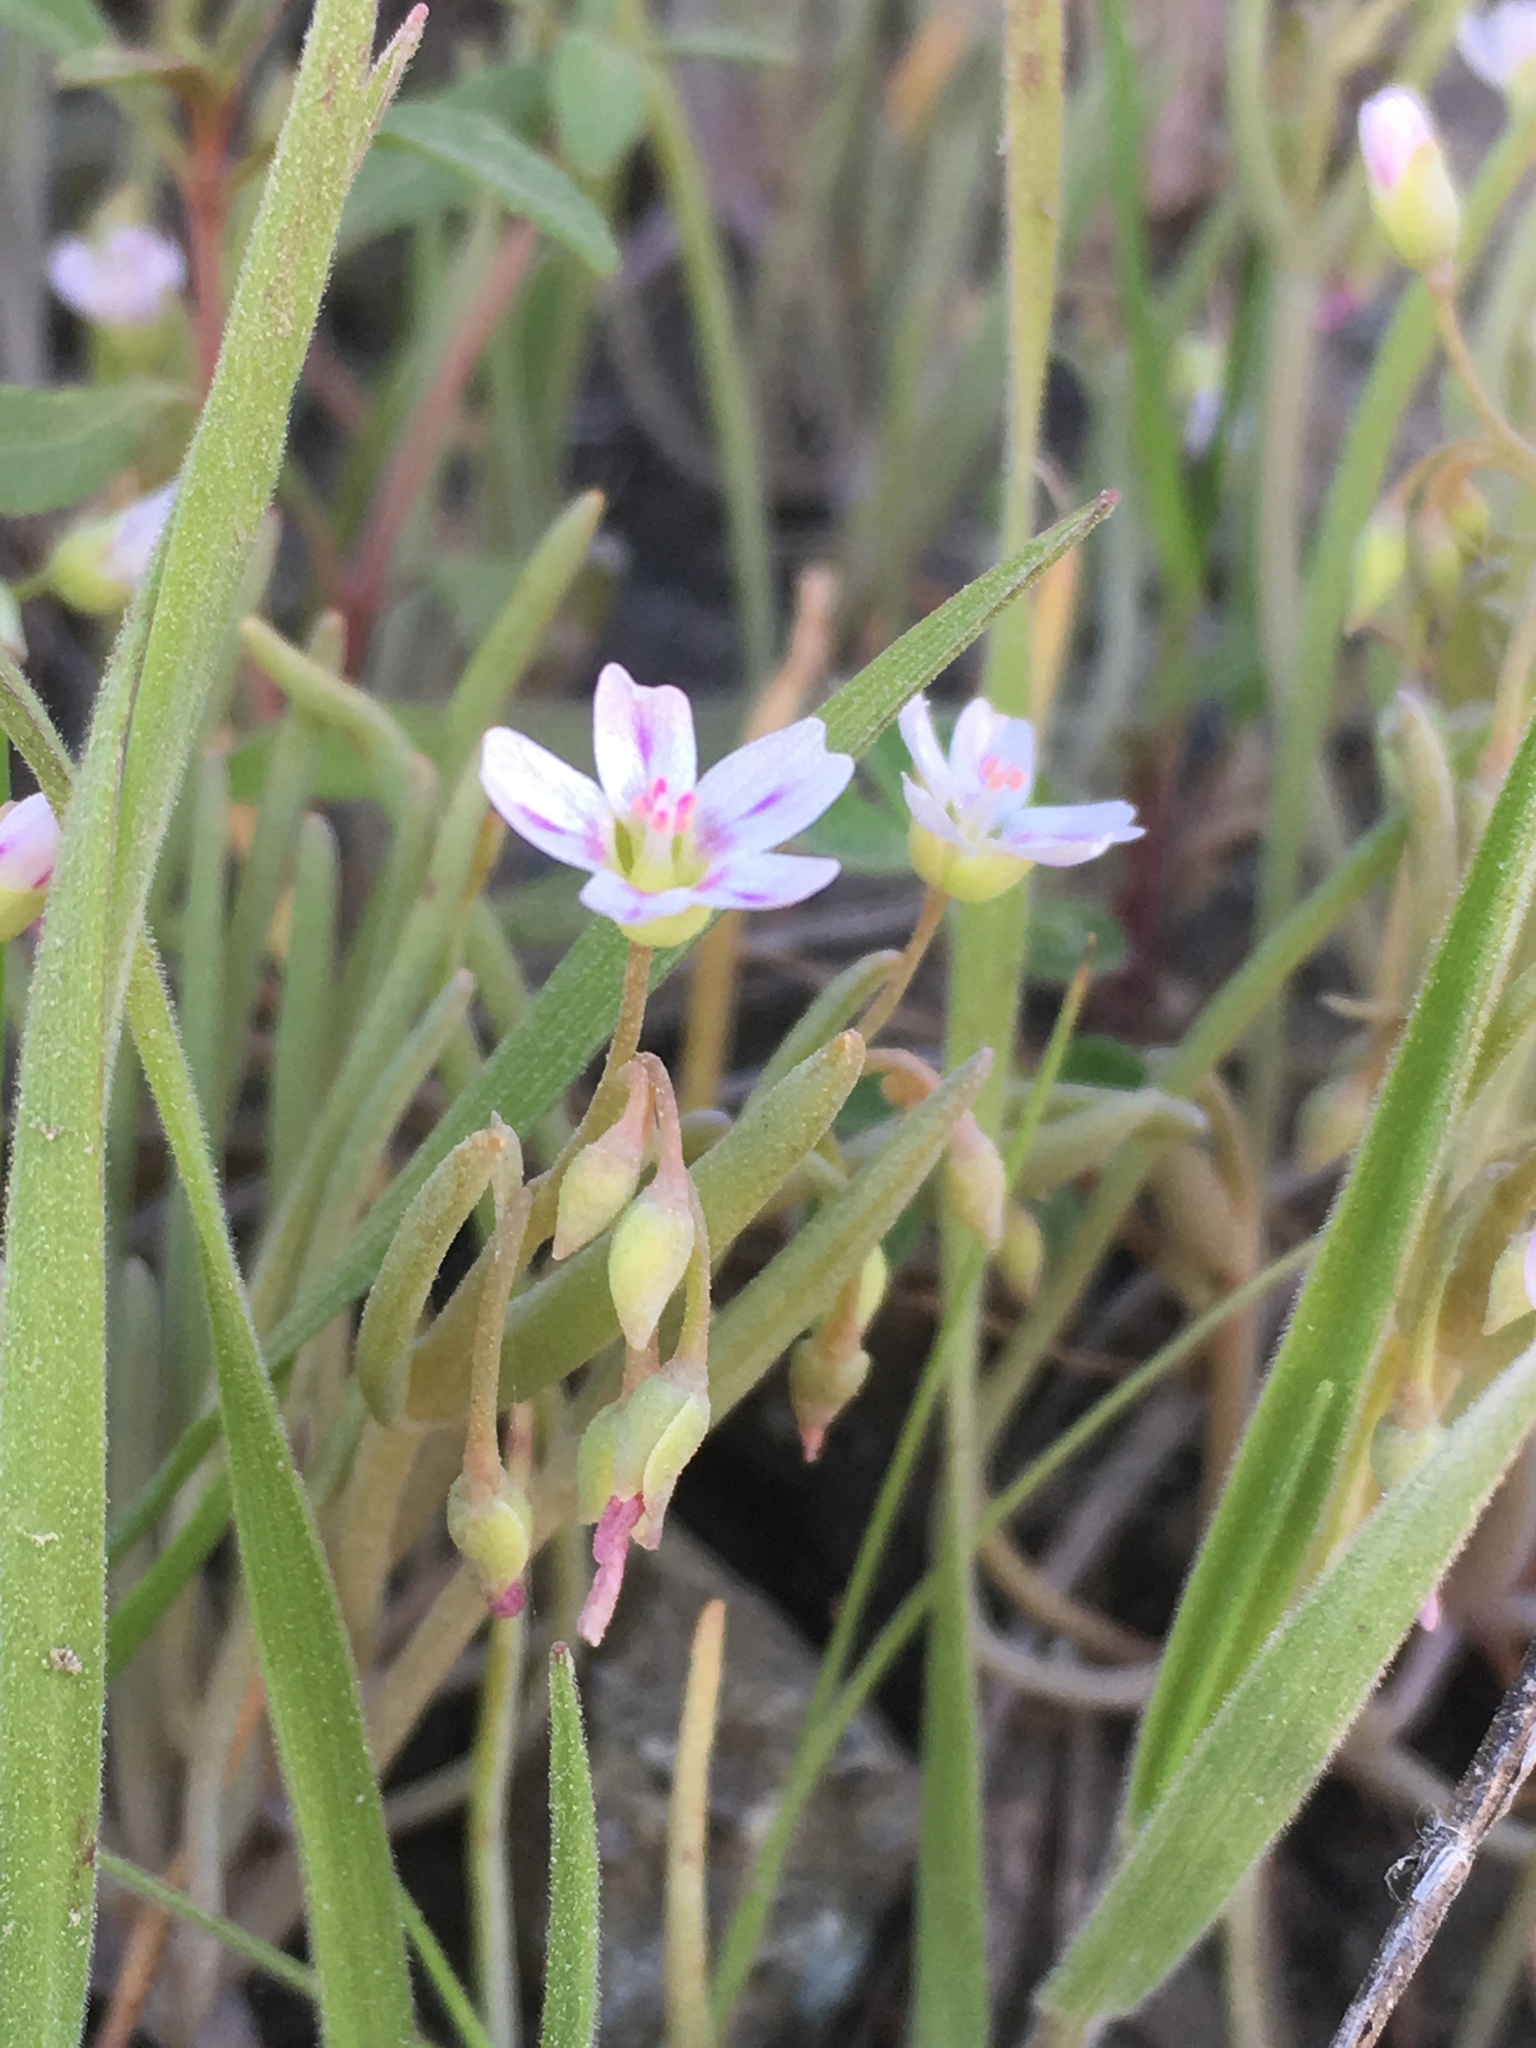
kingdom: Plantae
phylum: Tracheophyta
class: Magnoliopsida
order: Caryophyllales
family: Montiaceae
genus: Claytonia
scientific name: Claytonia exigua
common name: Pale spring beauty
